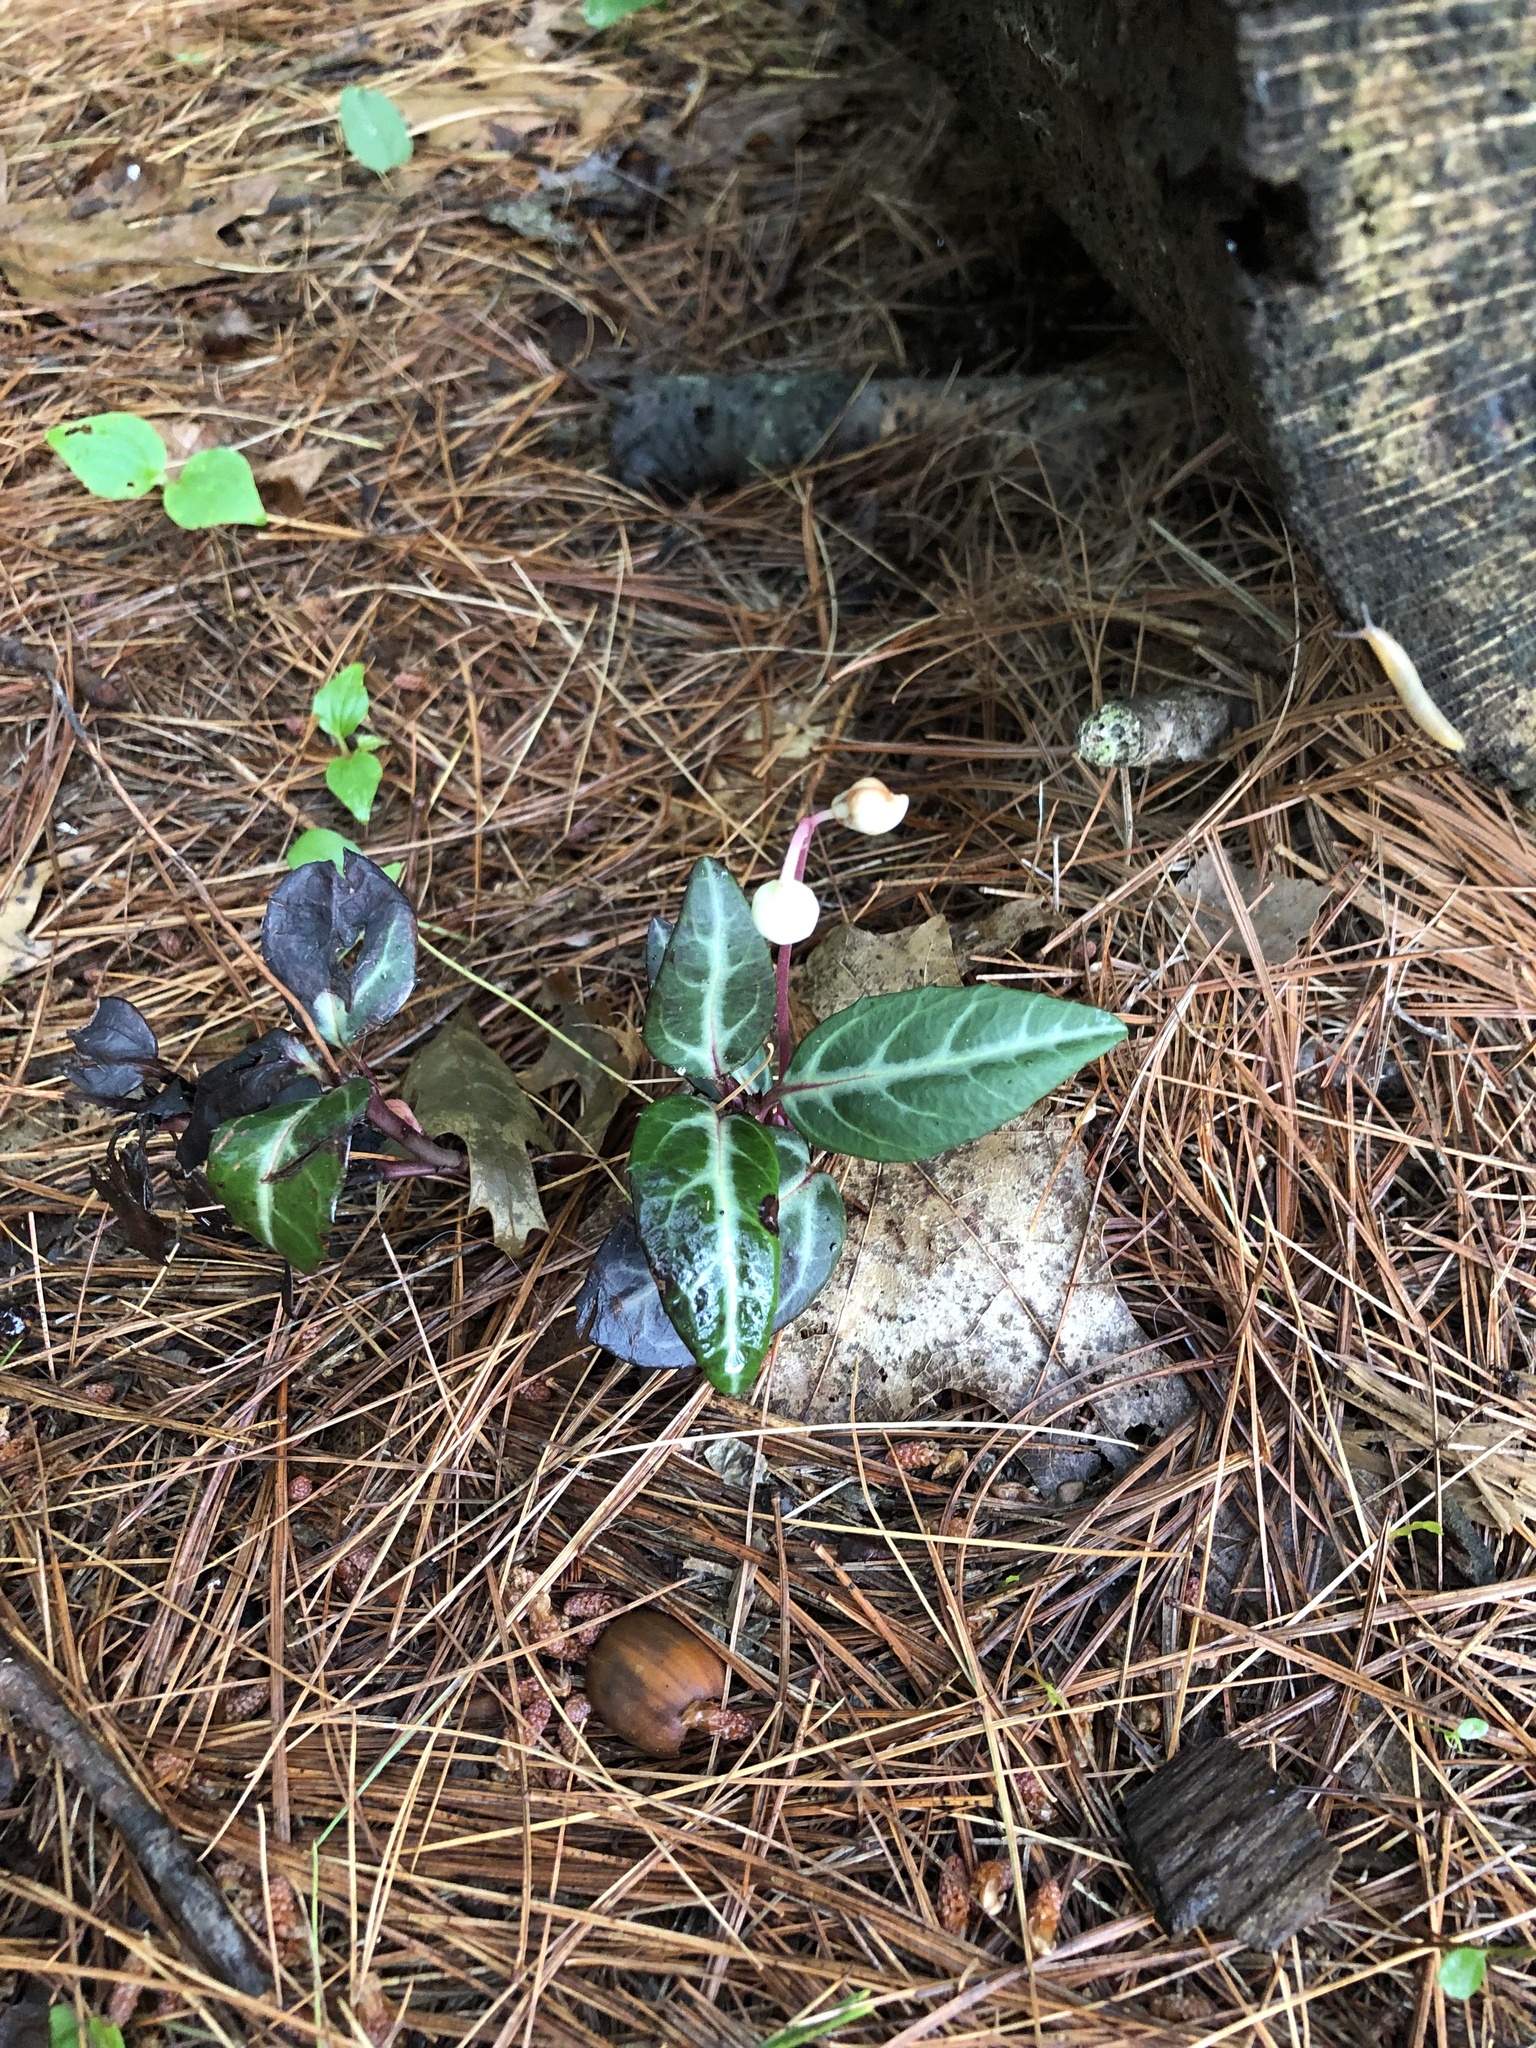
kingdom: Plantae
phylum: Tracheophyta
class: Magnoliopsida
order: Ericales
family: Ericaceae
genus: Chimaphila
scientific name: Chimaphila maculata
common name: Spotted pipsissewa
